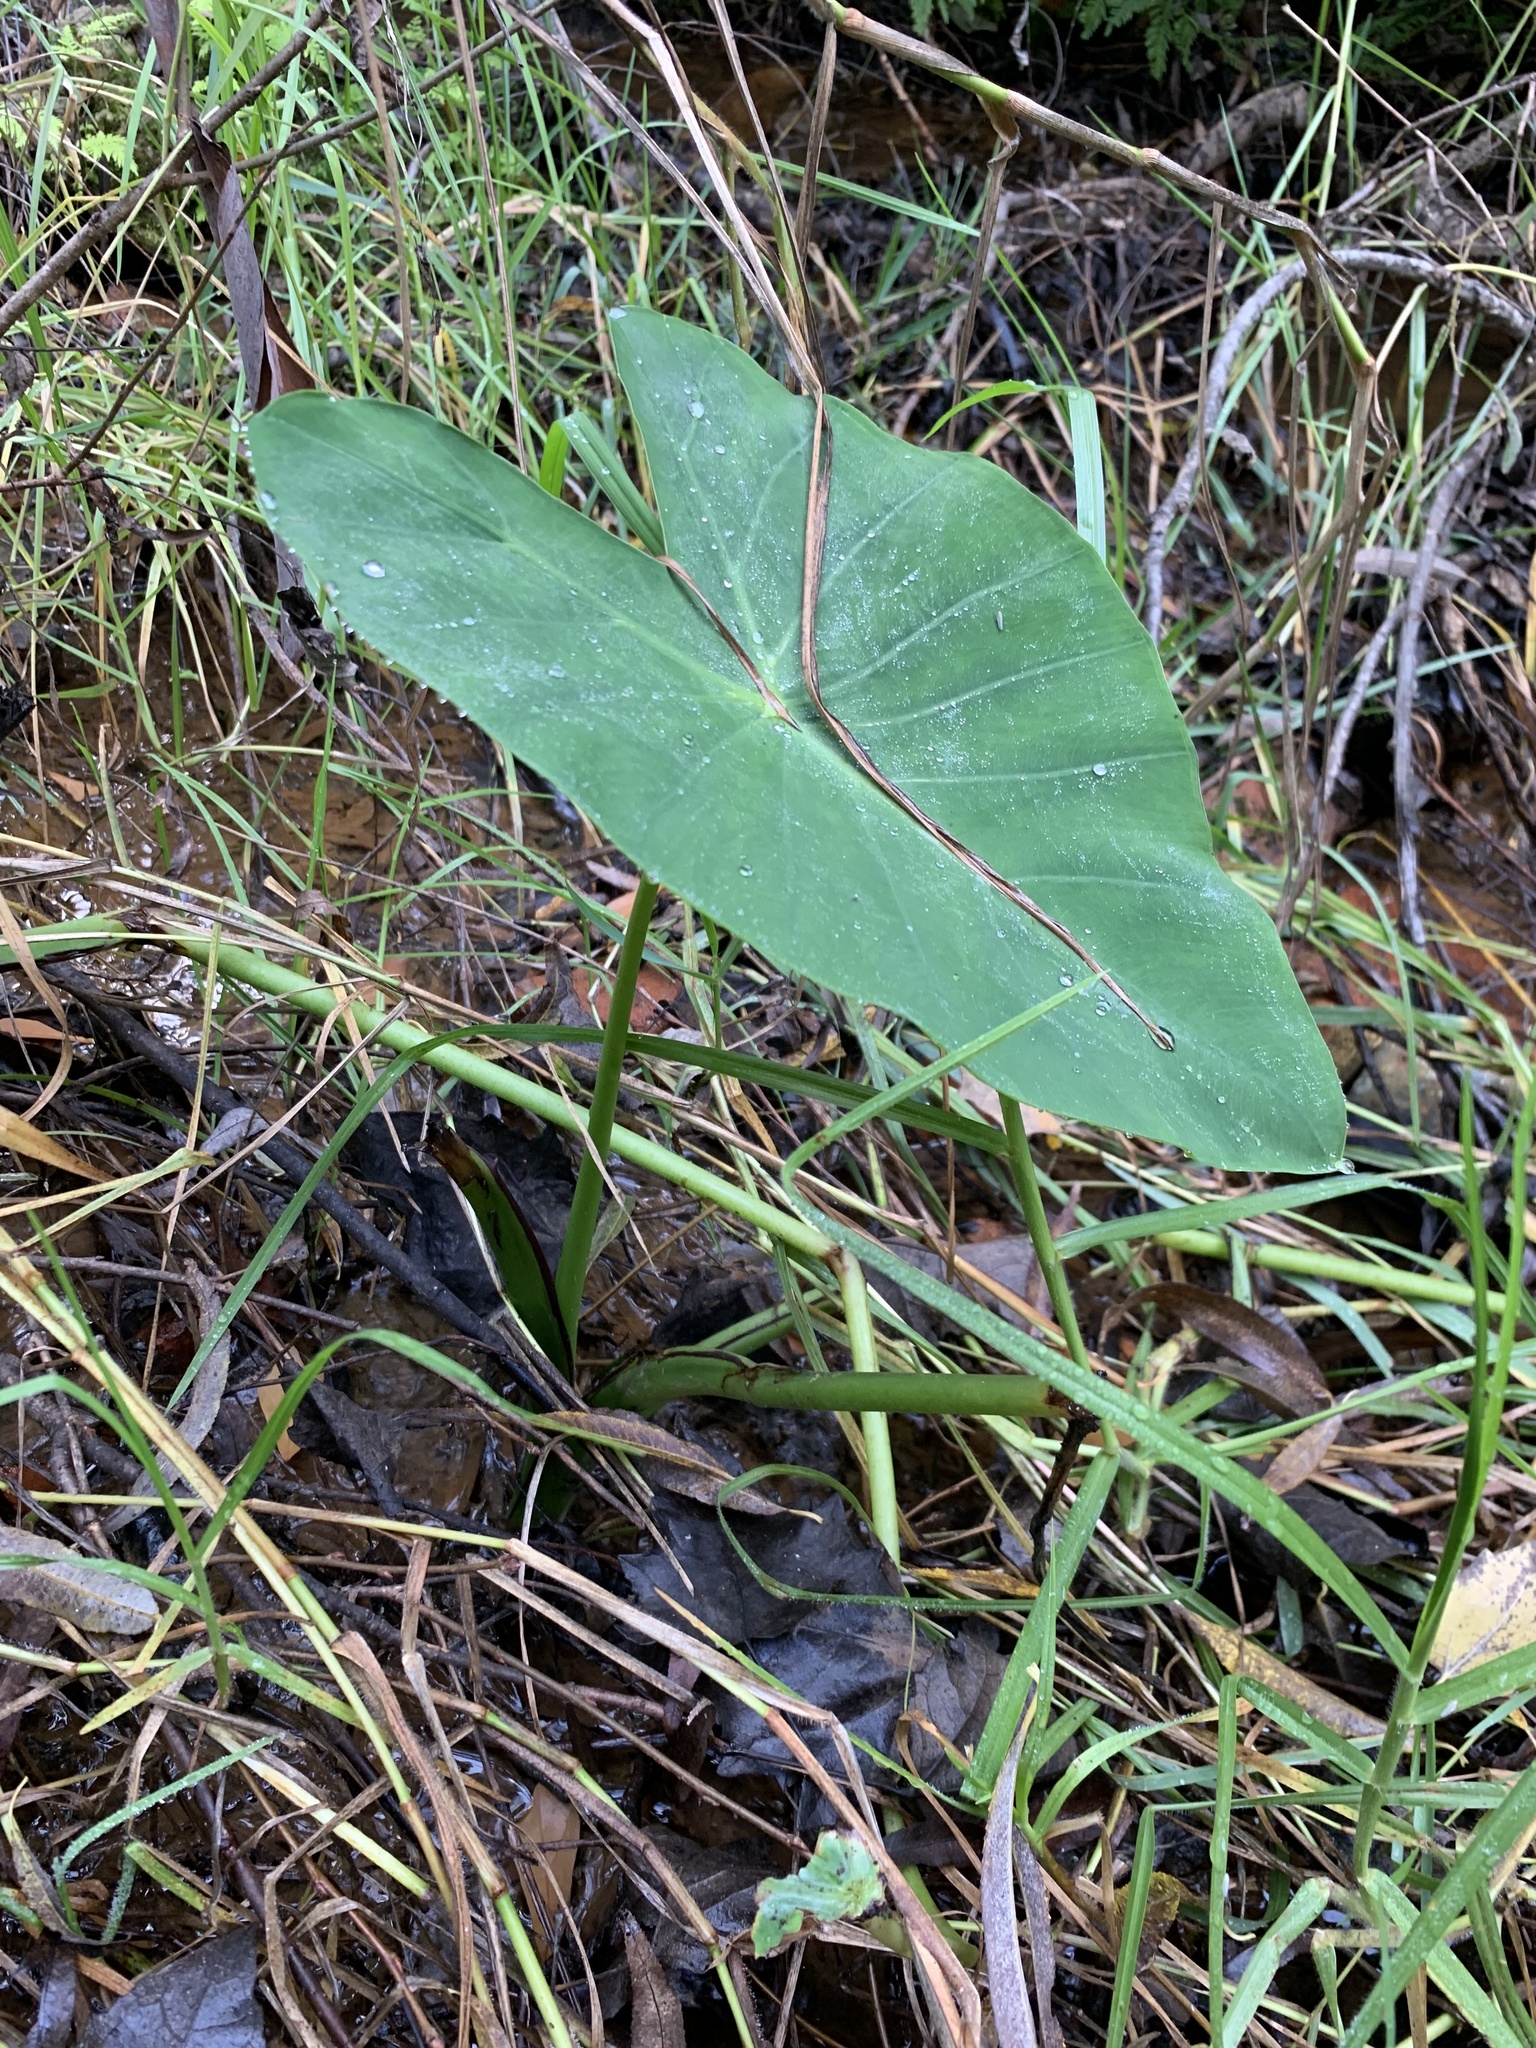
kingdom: Plantae
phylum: Tracheophyta
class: Liliopsida
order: Alismatales
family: Araceae
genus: Colocasia
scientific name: Colocasia esculenta
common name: Taro
